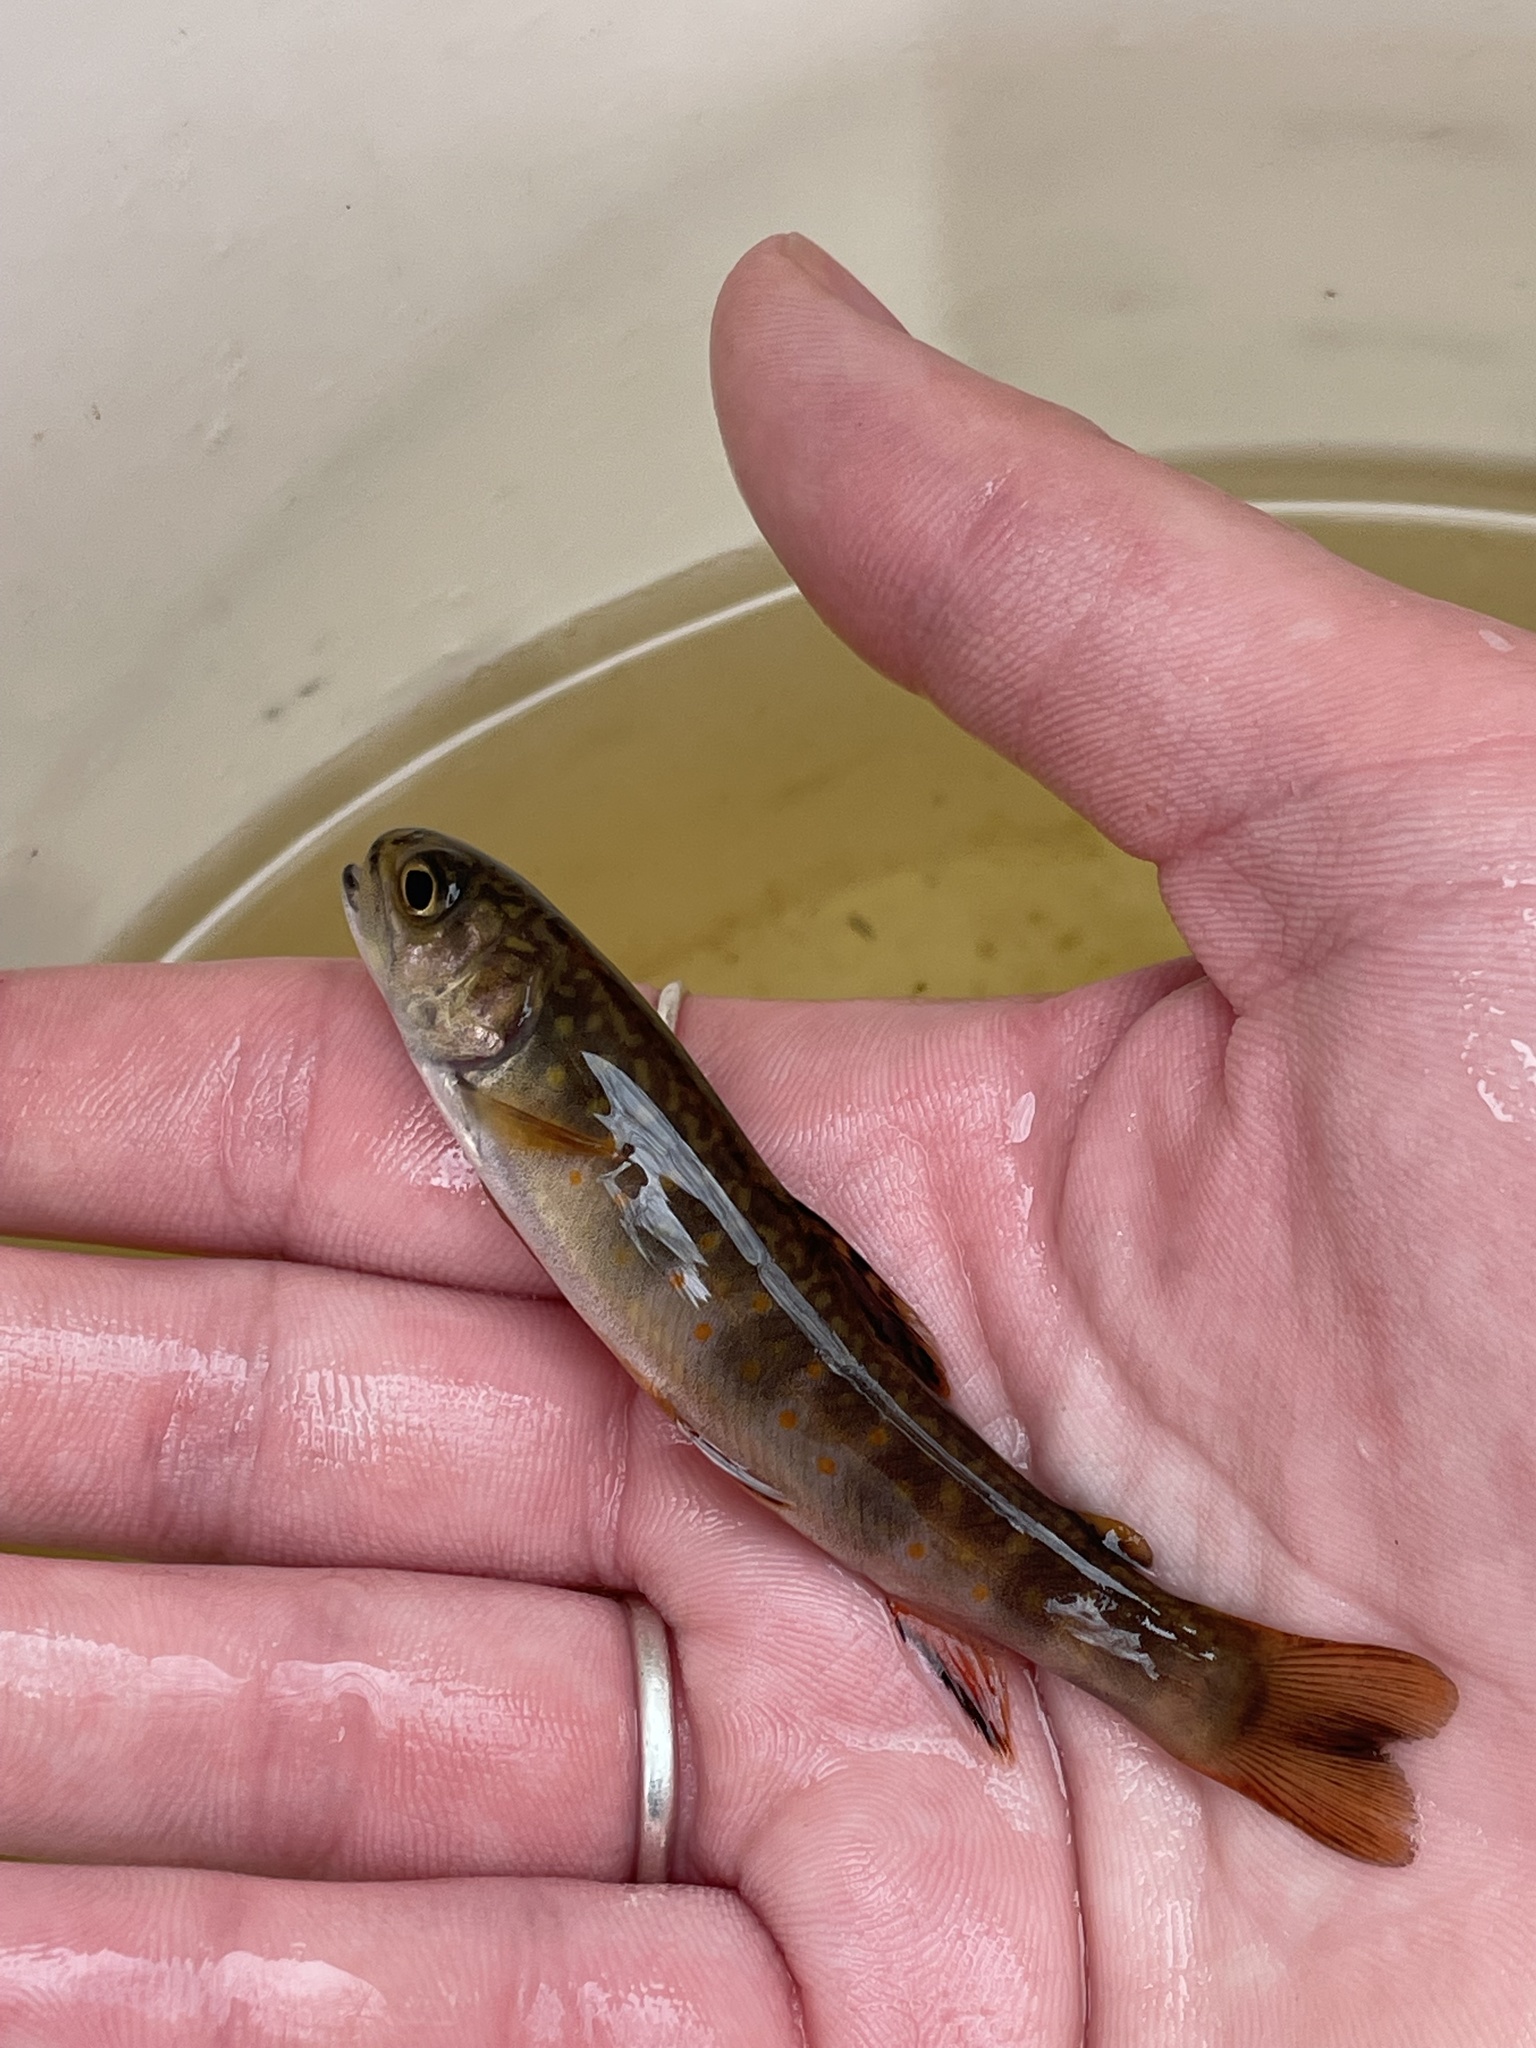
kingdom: Animalia
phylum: Chordata
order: Salmoniformes
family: Salmonidae
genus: Salvelinus
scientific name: Salvelinus fontinalis
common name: Brook trout
